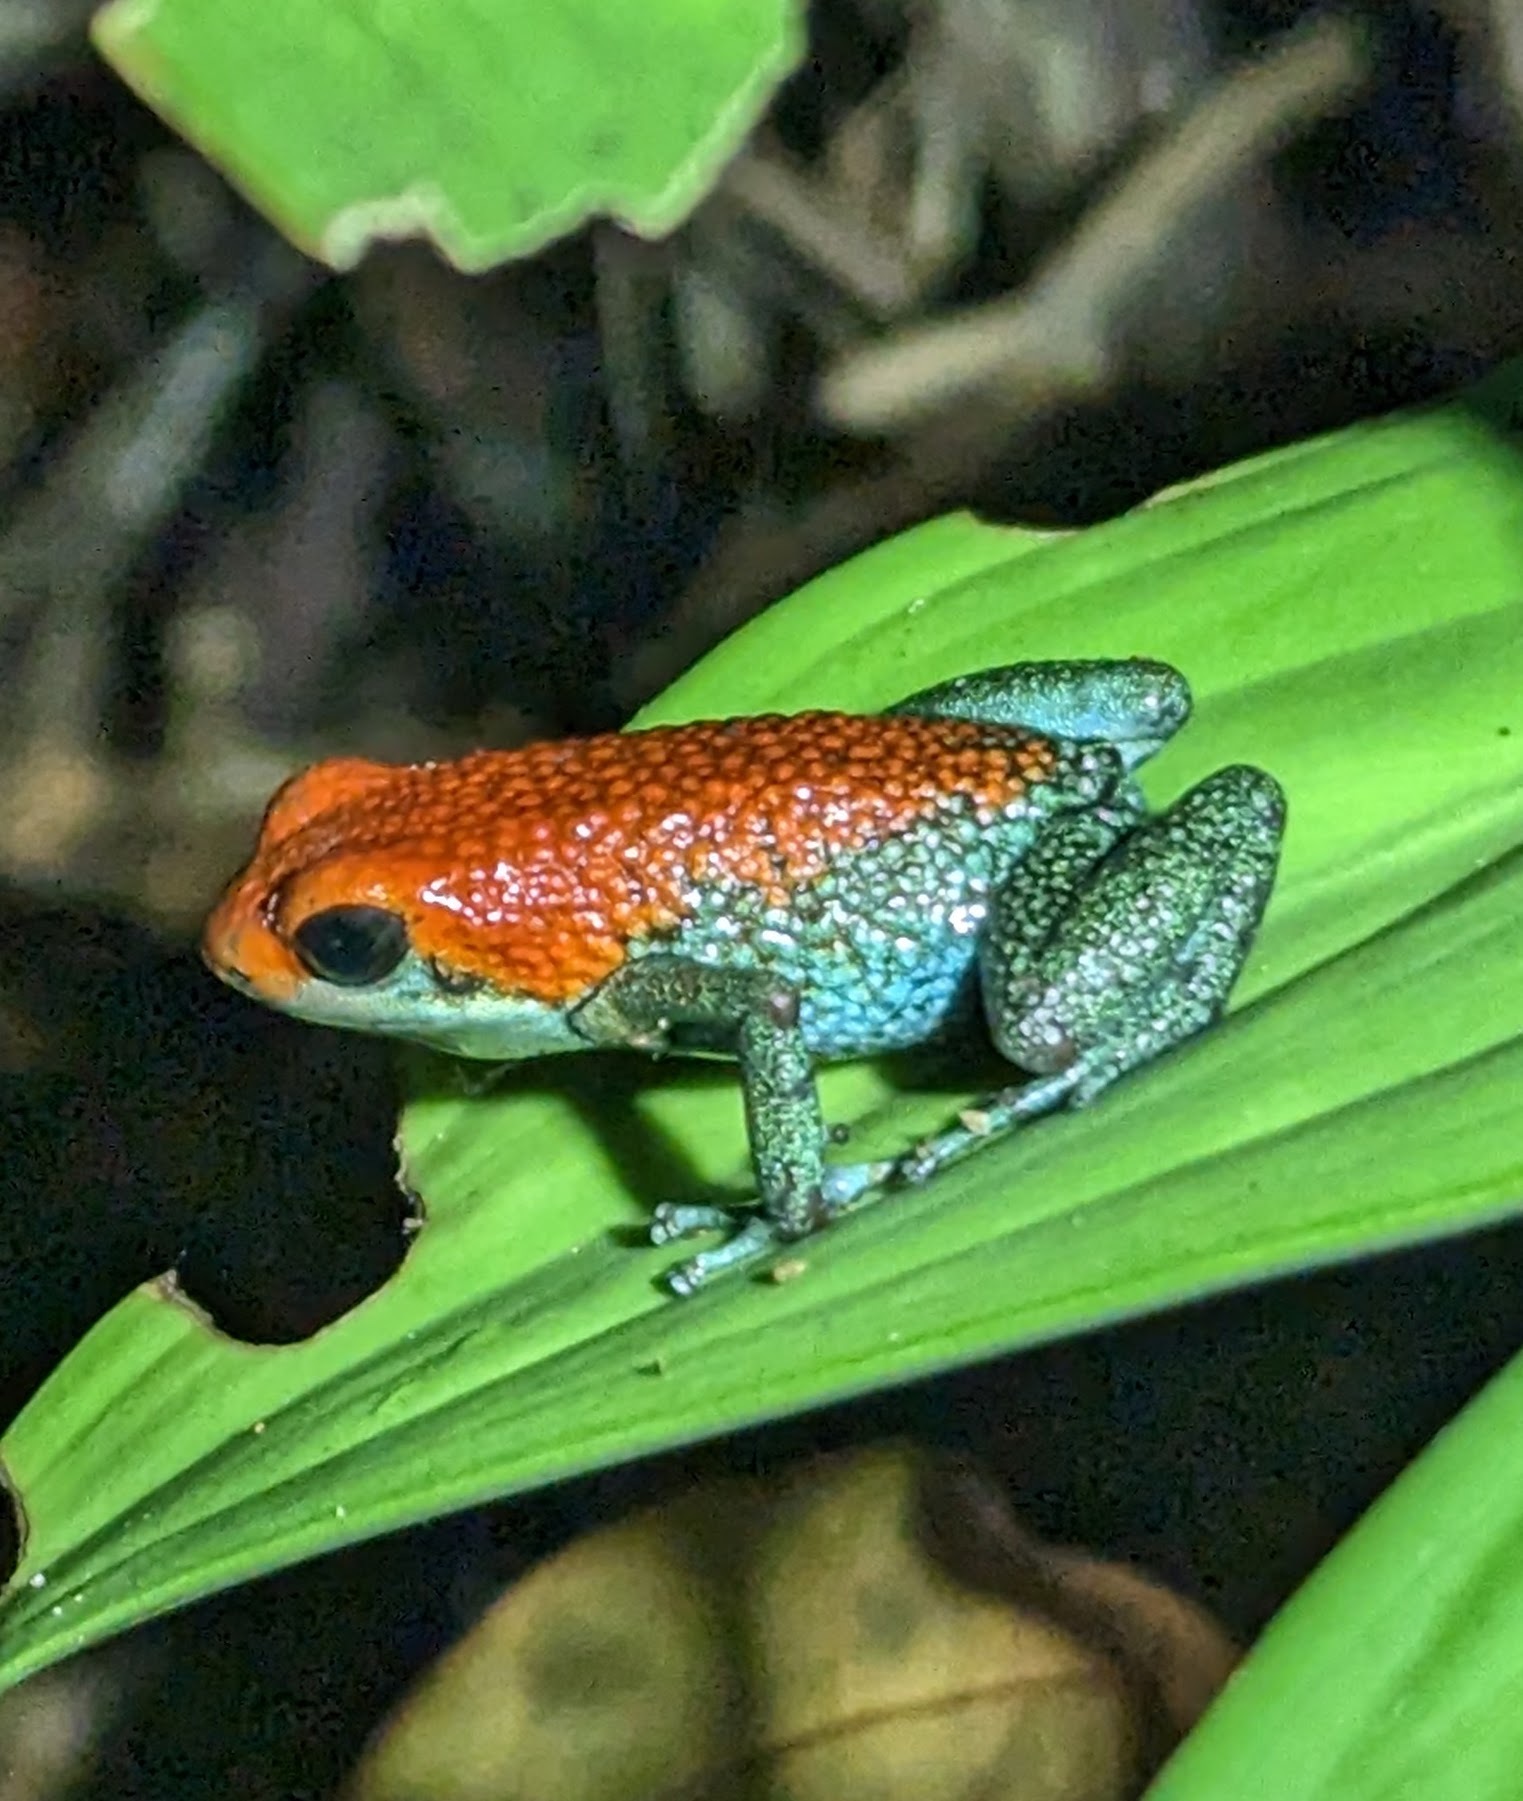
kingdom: Animalia
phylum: Chordata
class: Amphibia
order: Anura
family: Dendrobatidae
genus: Oophaga
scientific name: Oophaga granulifera
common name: Granular poison frog
